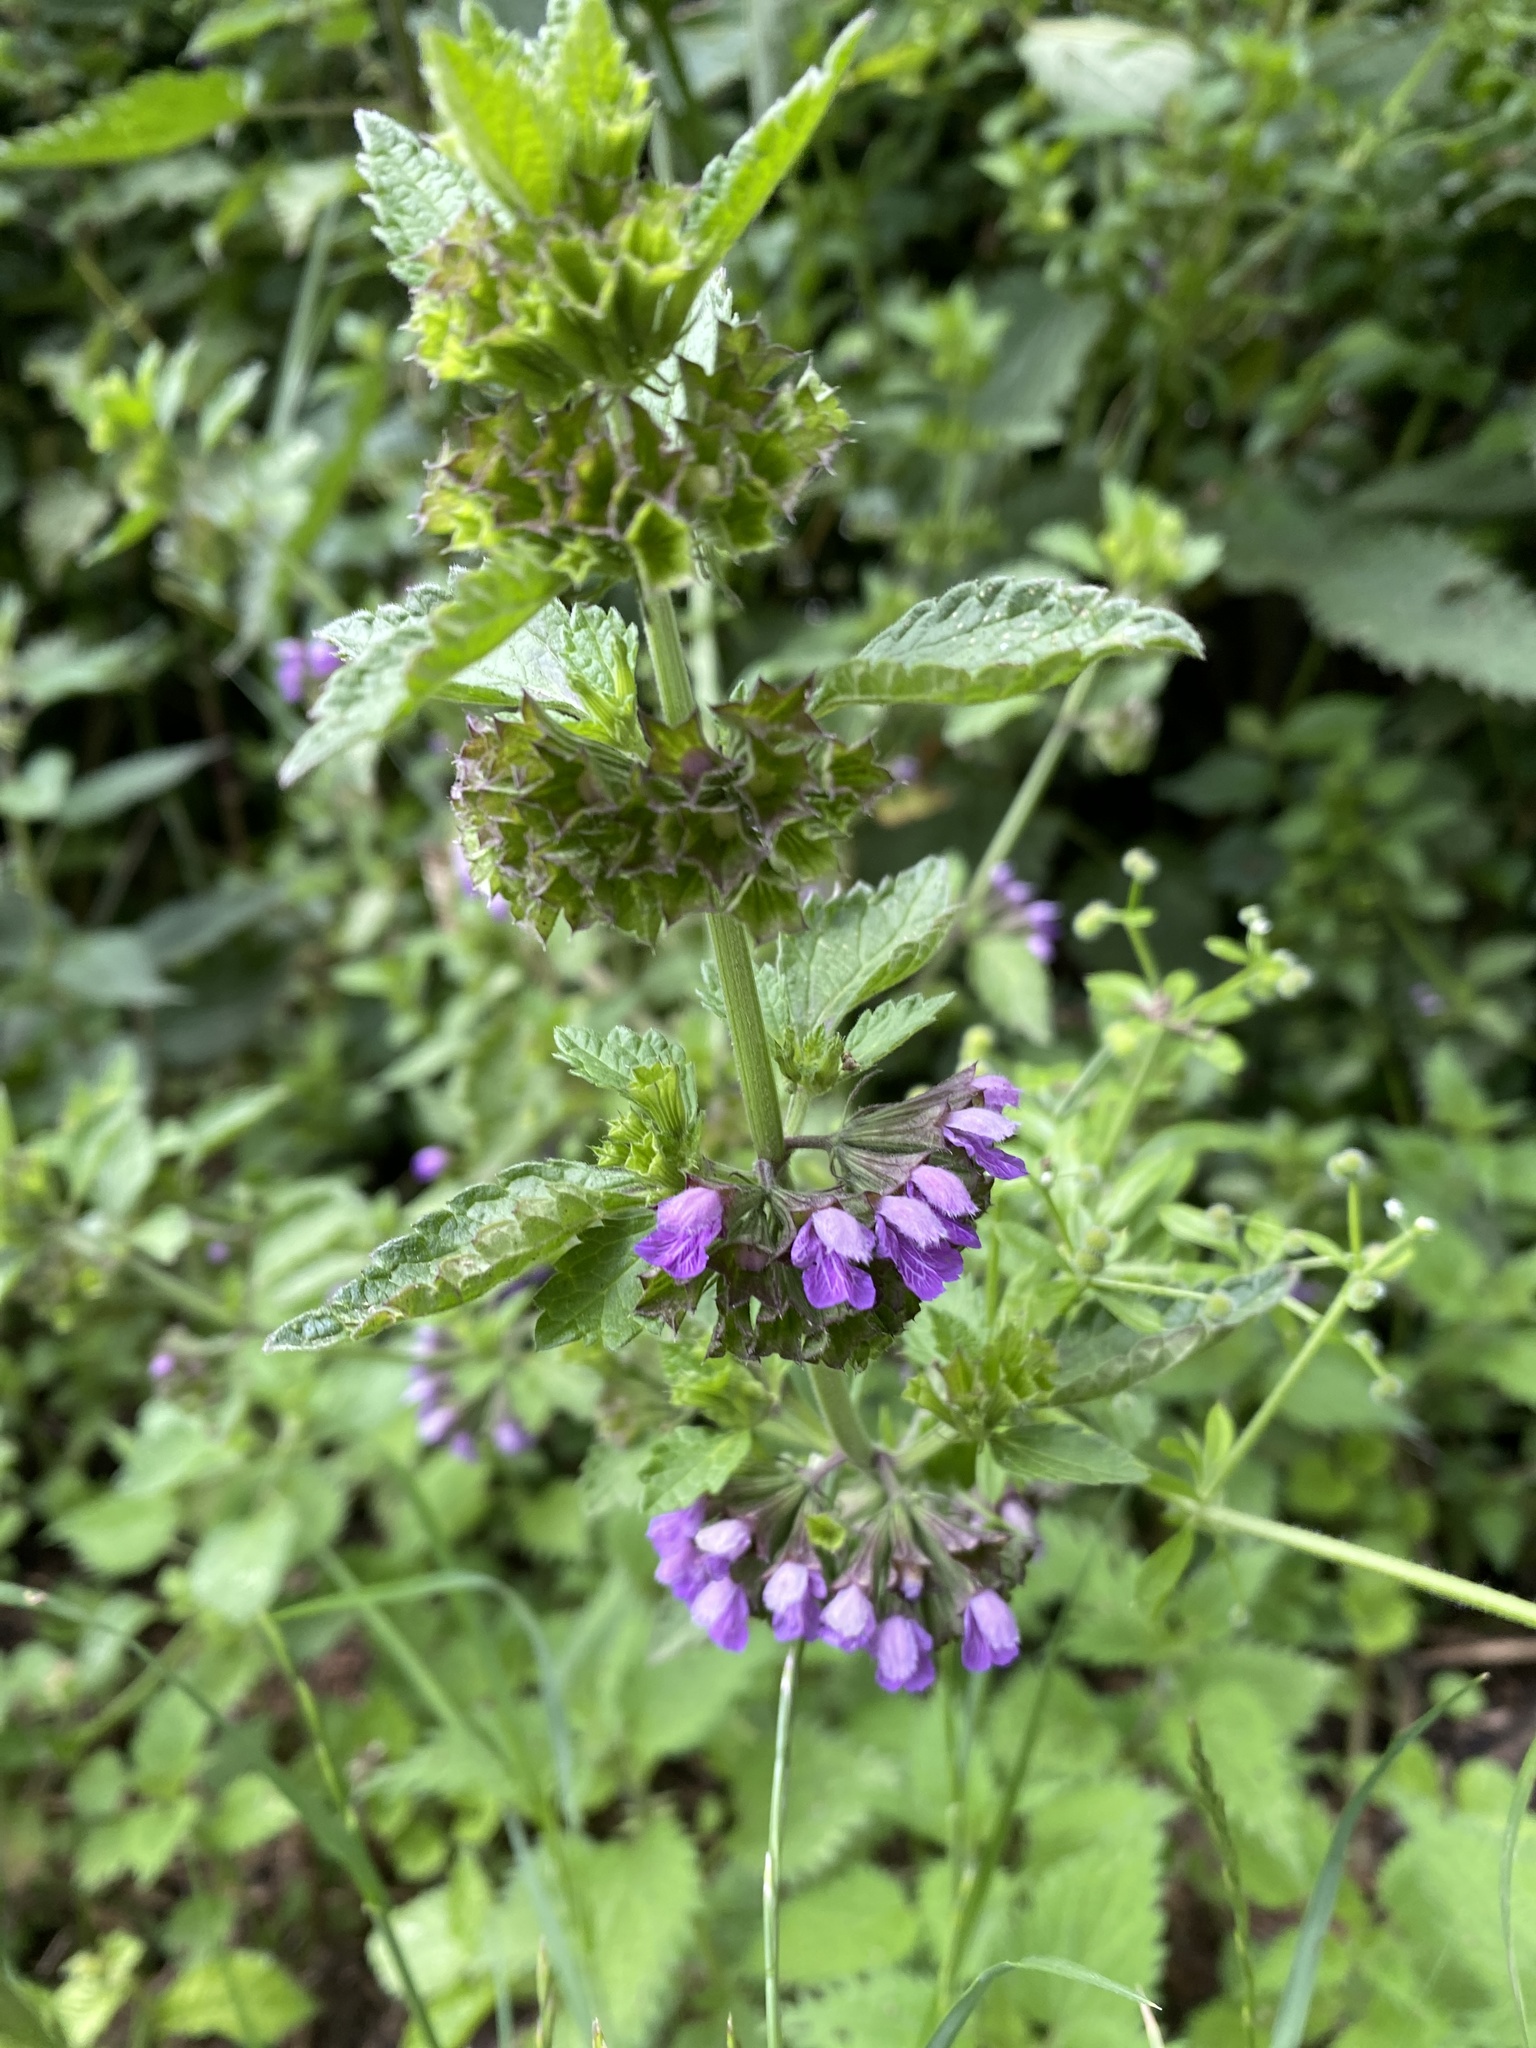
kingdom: Plantae
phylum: Tracheophyta
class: Magnoliopsida
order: Lamiales
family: Lamiaceae
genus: Ballota
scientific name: Ballota nigra
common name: Black horehound
